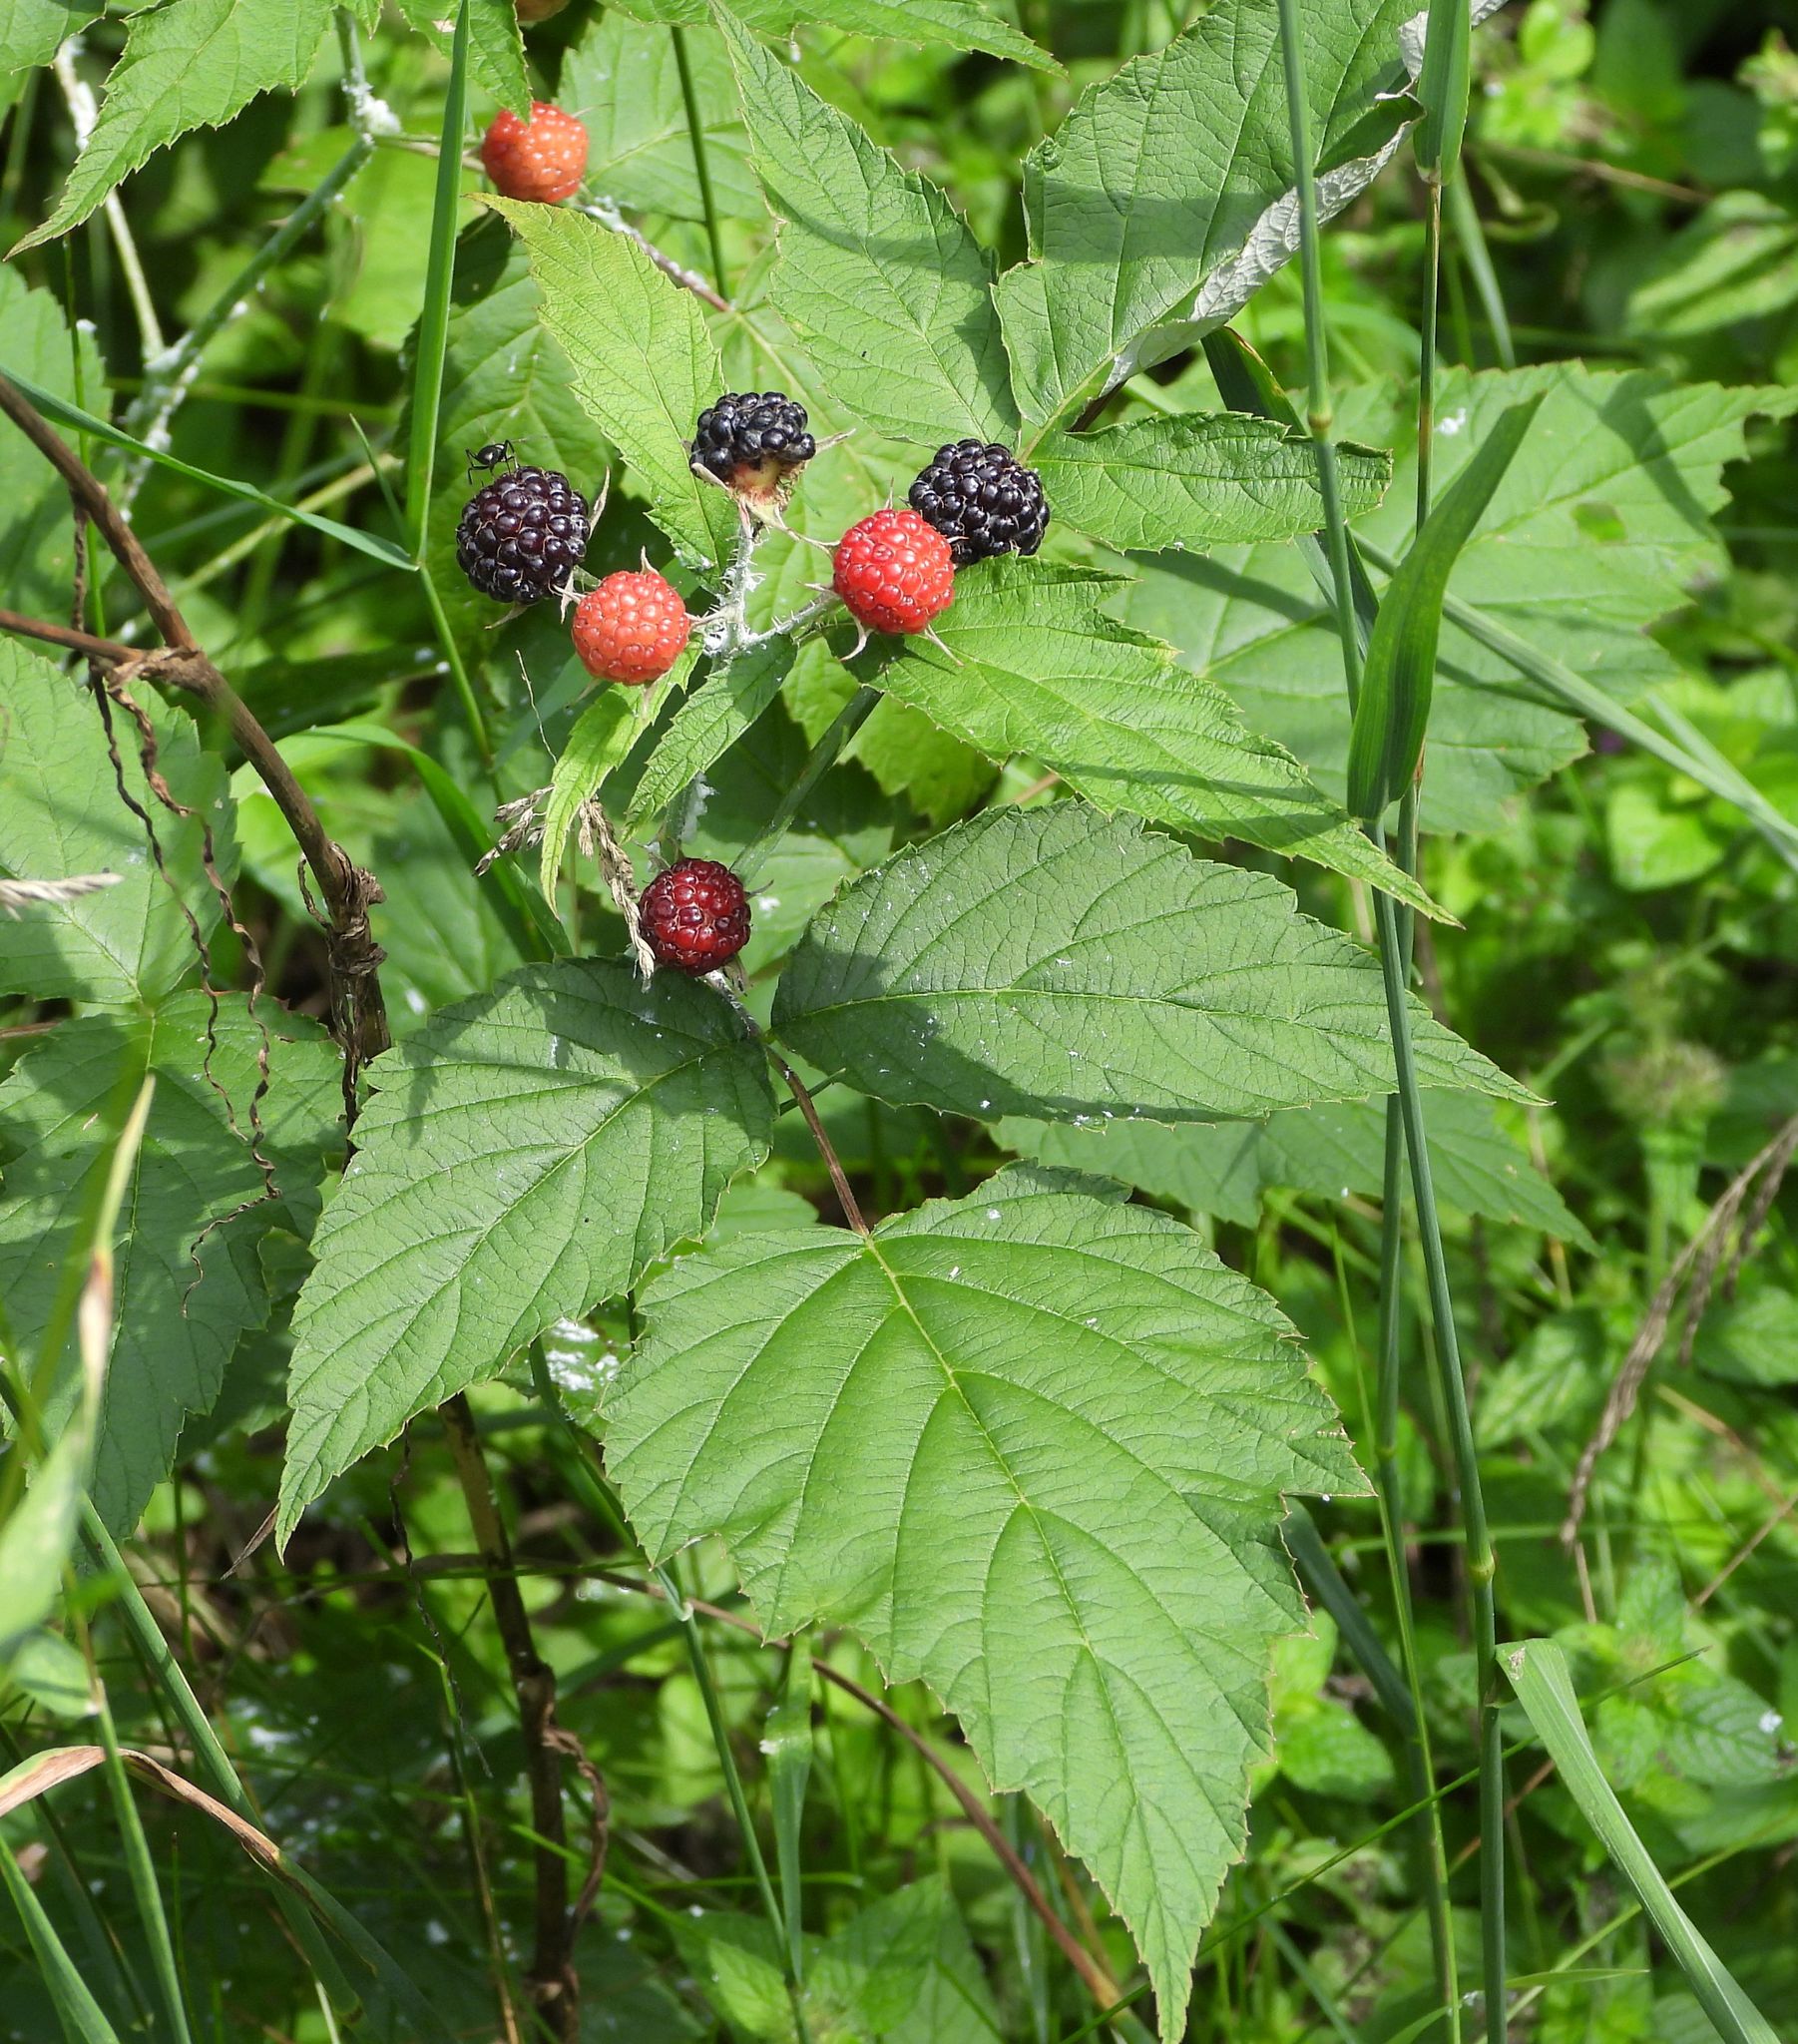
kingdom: Plantae
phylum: Tracheophyta
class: Magnoliopsida
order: Rosales
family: Rosaceae
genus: Rubus
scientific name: Rubus occidentalis
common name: Black raspberry
